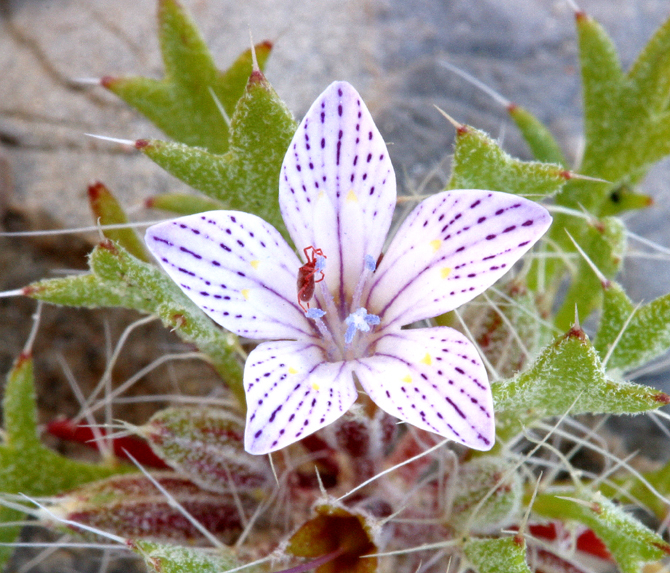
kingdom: Plantae
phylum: Tracheophyta
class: Magnoliopsida
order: Ericales
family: Polemoniaceae
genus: Langloisia
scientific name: Langloisia setosissima
